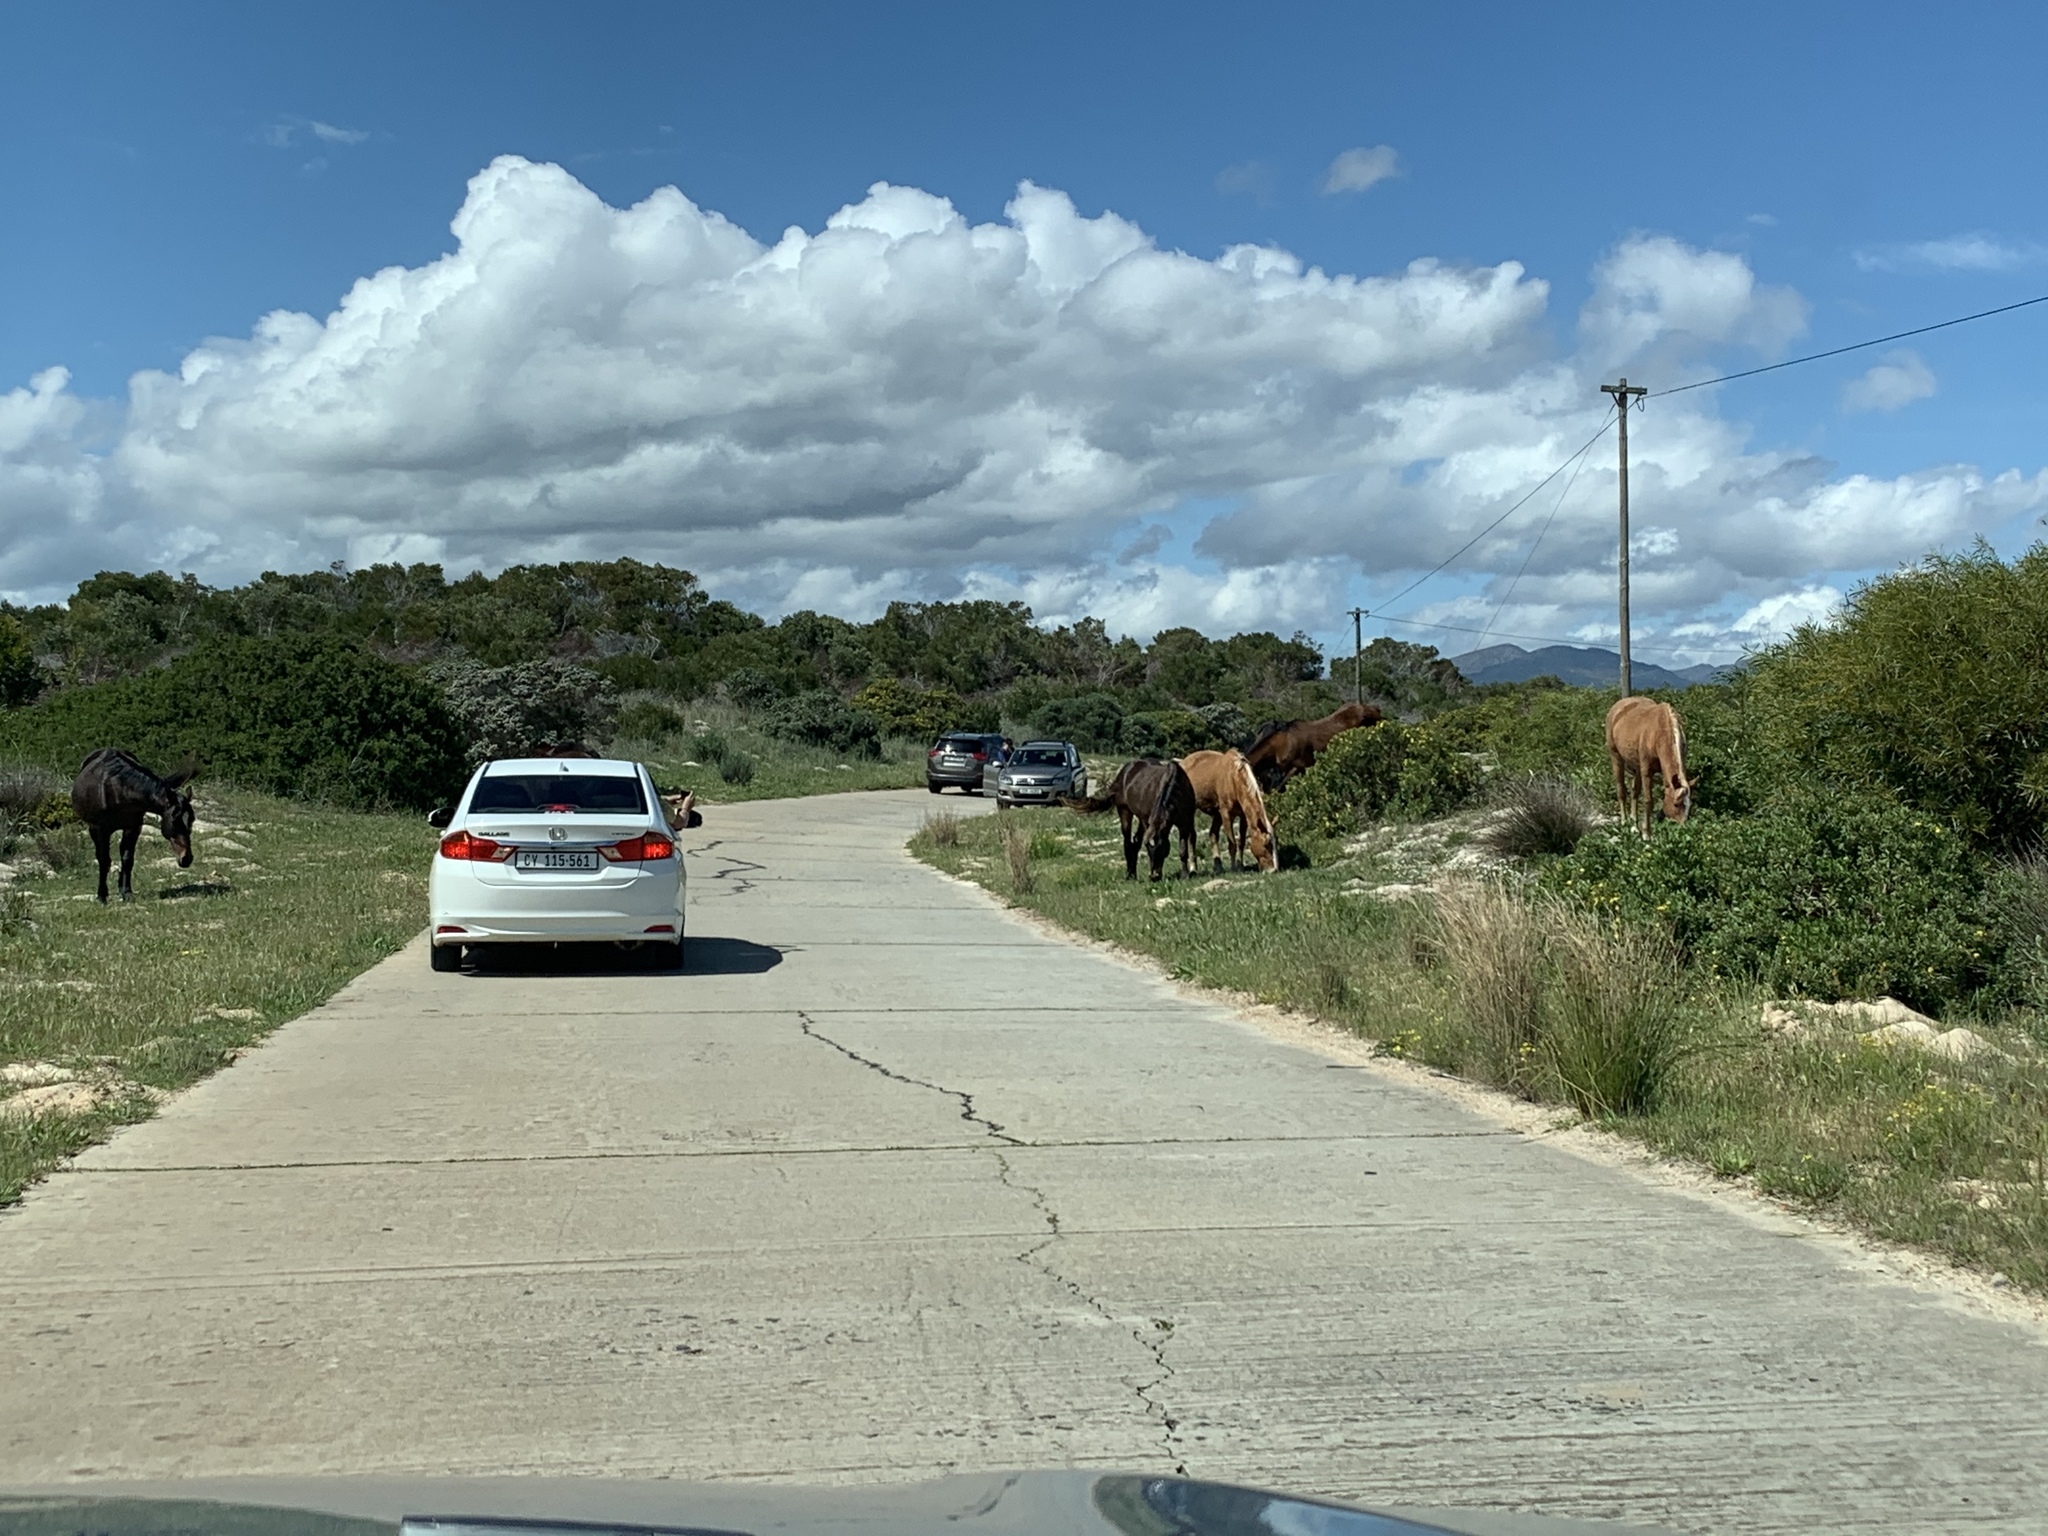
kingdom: Animalia
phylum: Chordata
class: Mammalia
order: Perissodactyla
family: Equidae
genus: Equus
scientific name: Equus caballus
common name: Horse
